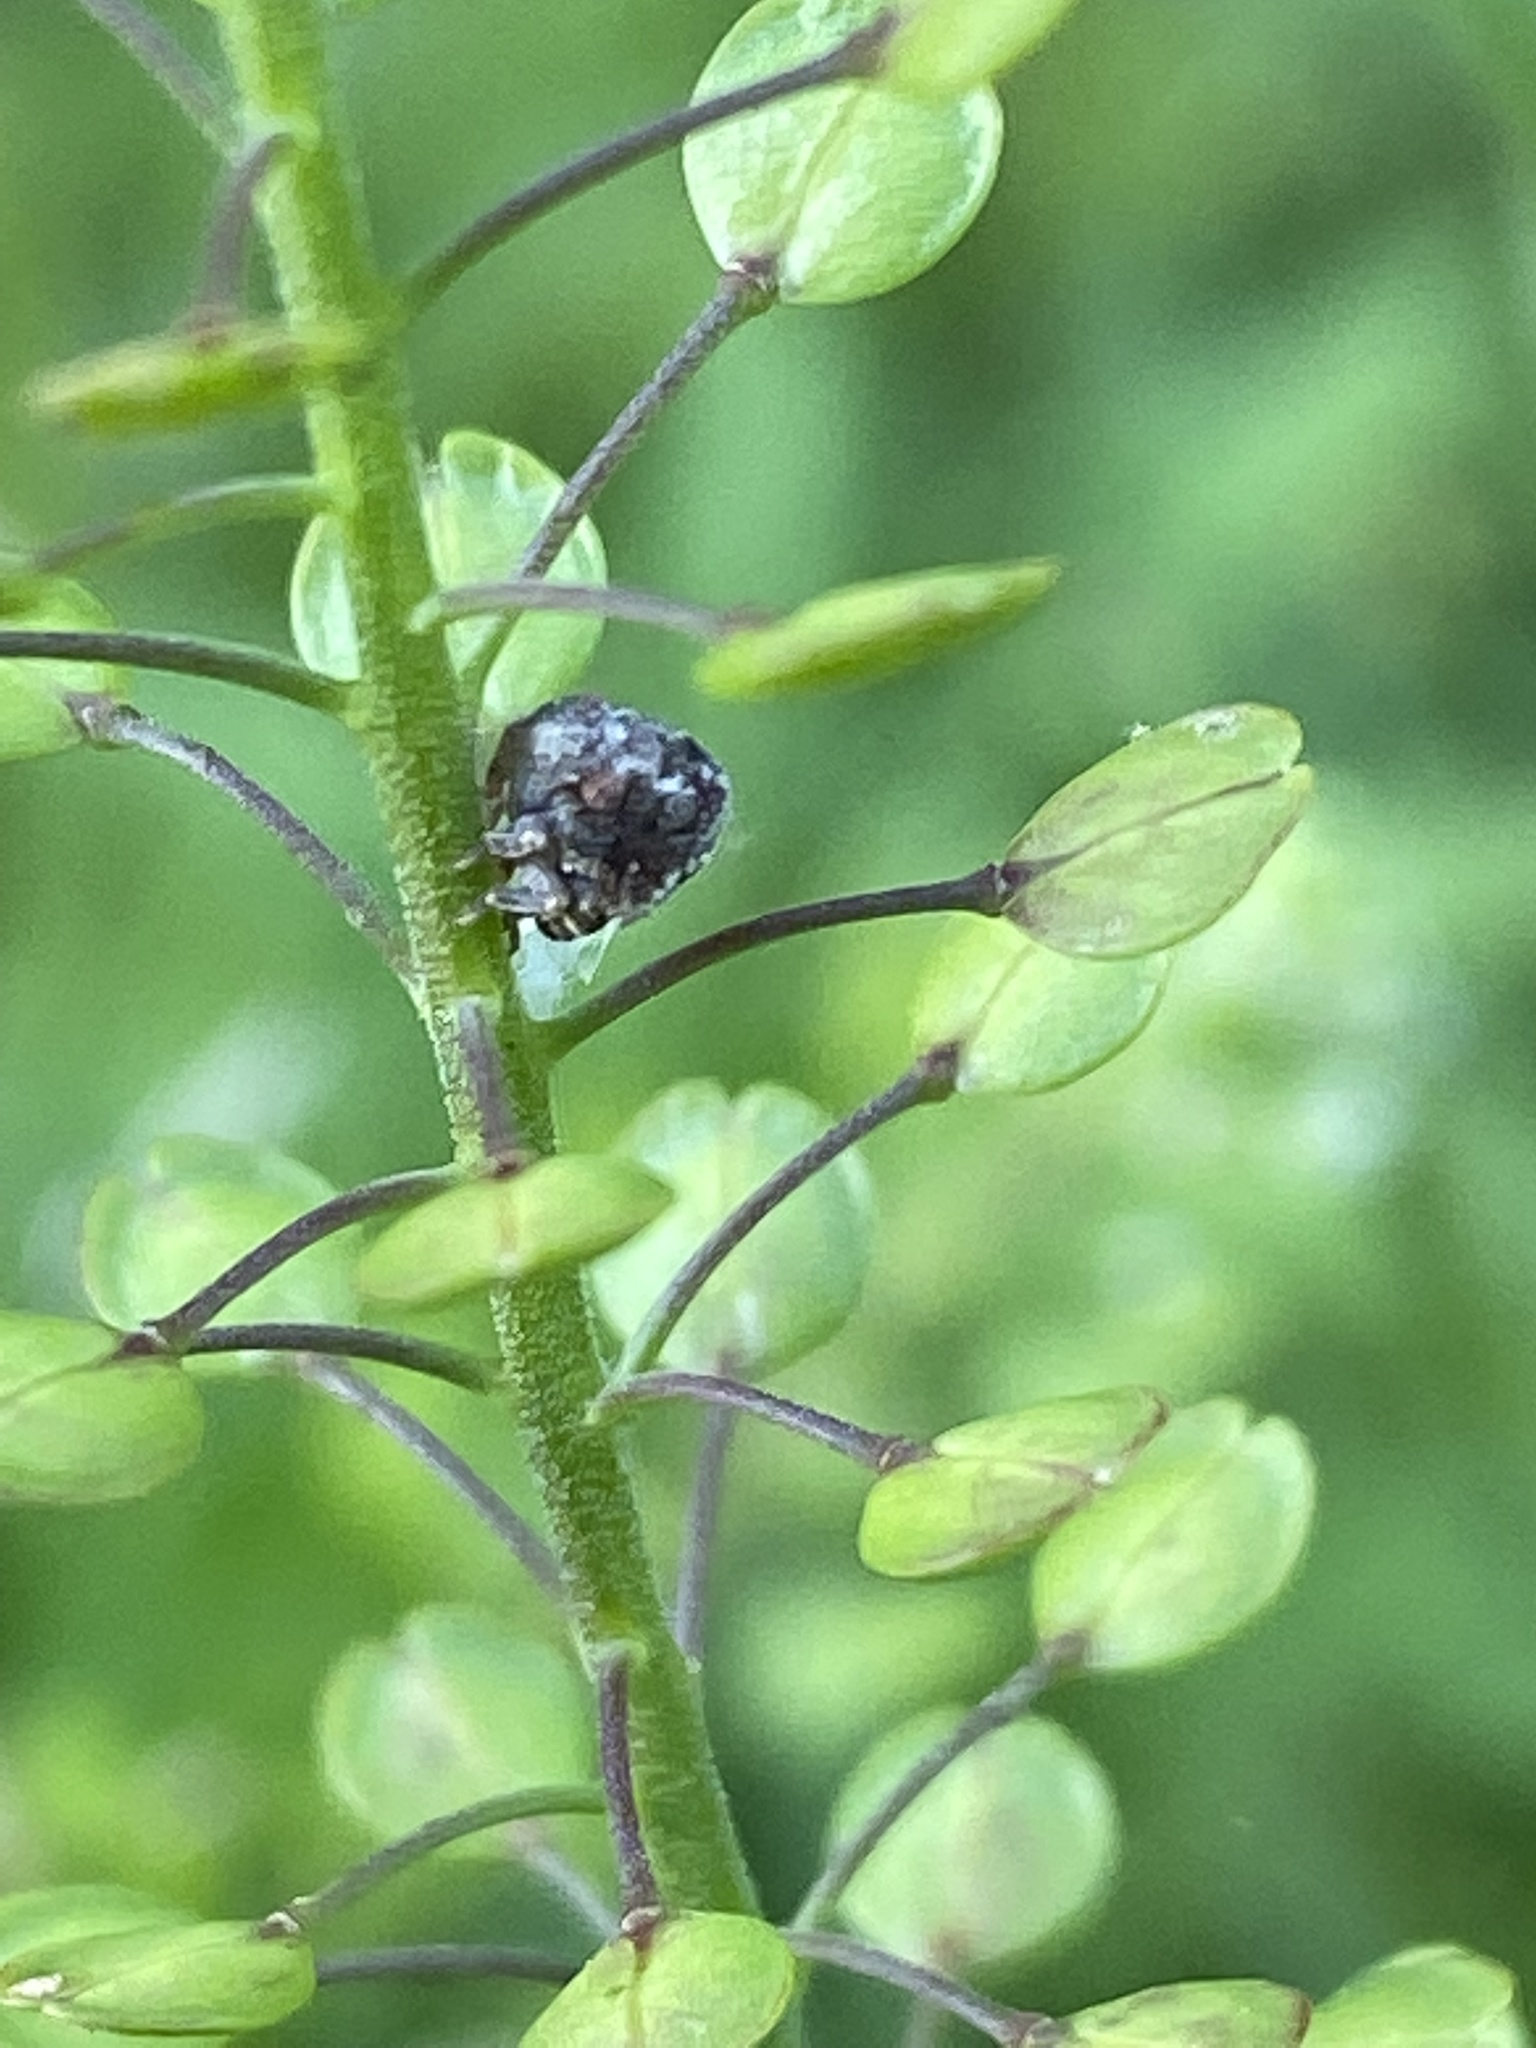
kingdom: Animalia
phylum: Arthropoda
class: Insecta
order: Hemiptera
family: Acanaloniidae
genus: Acanalonia
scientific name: Acanalonia bivittata
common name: Two-striped planthopper
